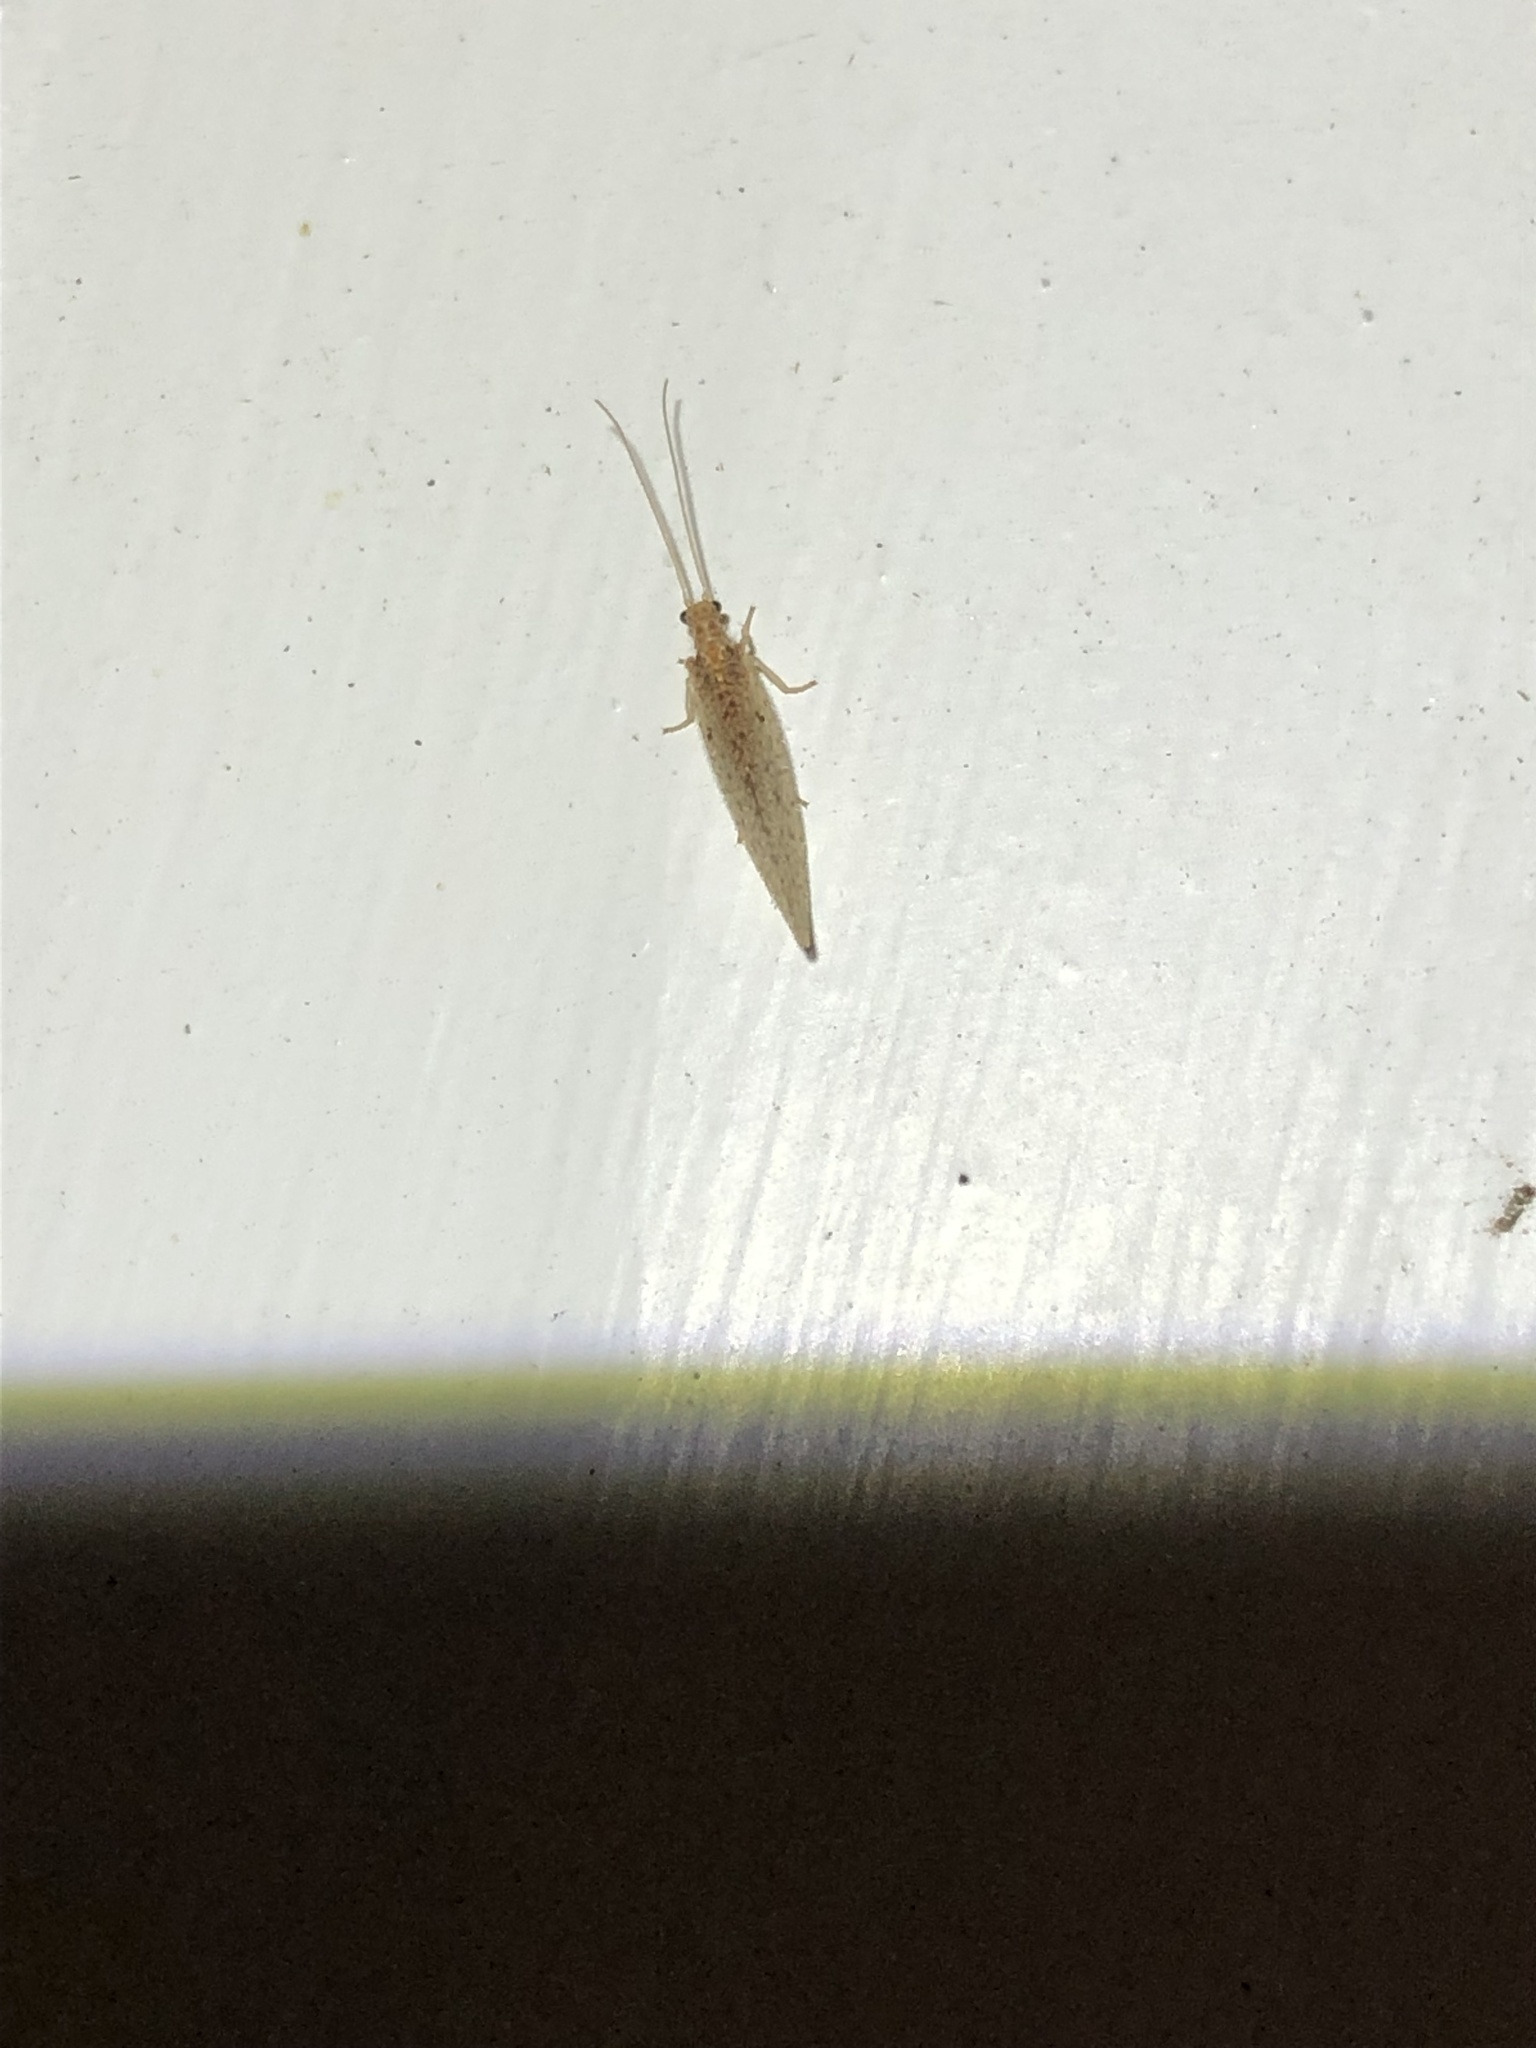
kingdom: Animalia
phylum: Arthropoda
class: Insecta
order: Neuroptera
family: Hemerobiidae
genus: Micromus
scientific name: Micromus subanticus
